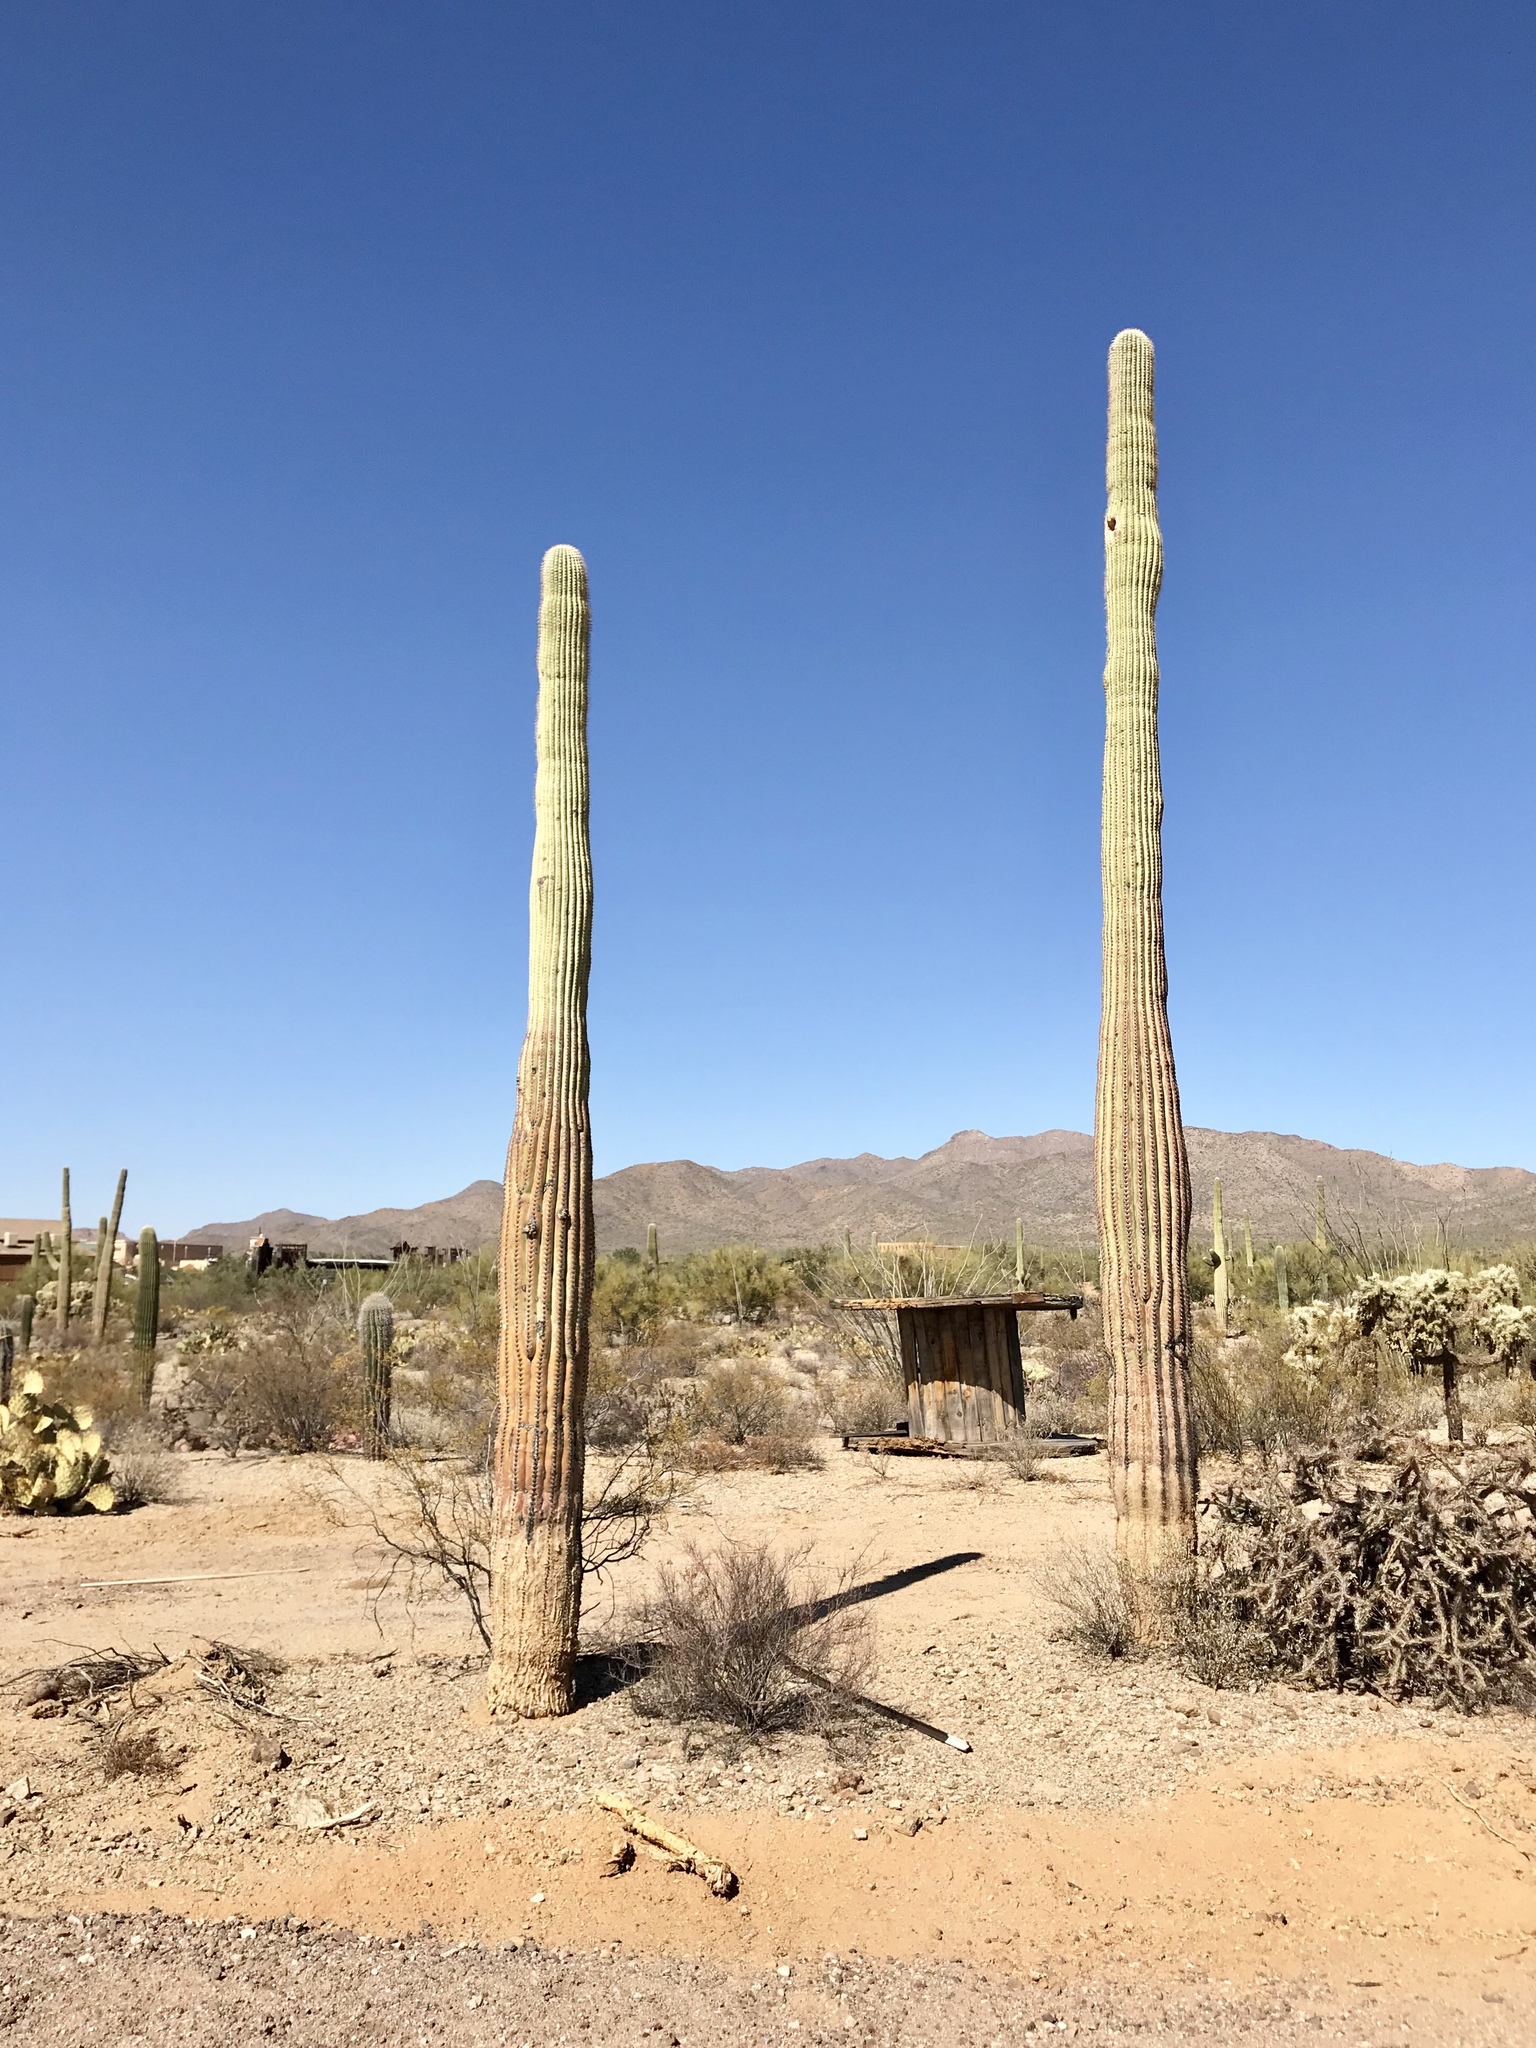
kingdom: Plantae
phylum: Tracheophyta
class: Magnoliopsida
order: Caryophyllales
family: Cactaceae
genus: Carnegiea
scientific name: Carnegiea gigantea
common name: Saguaro
